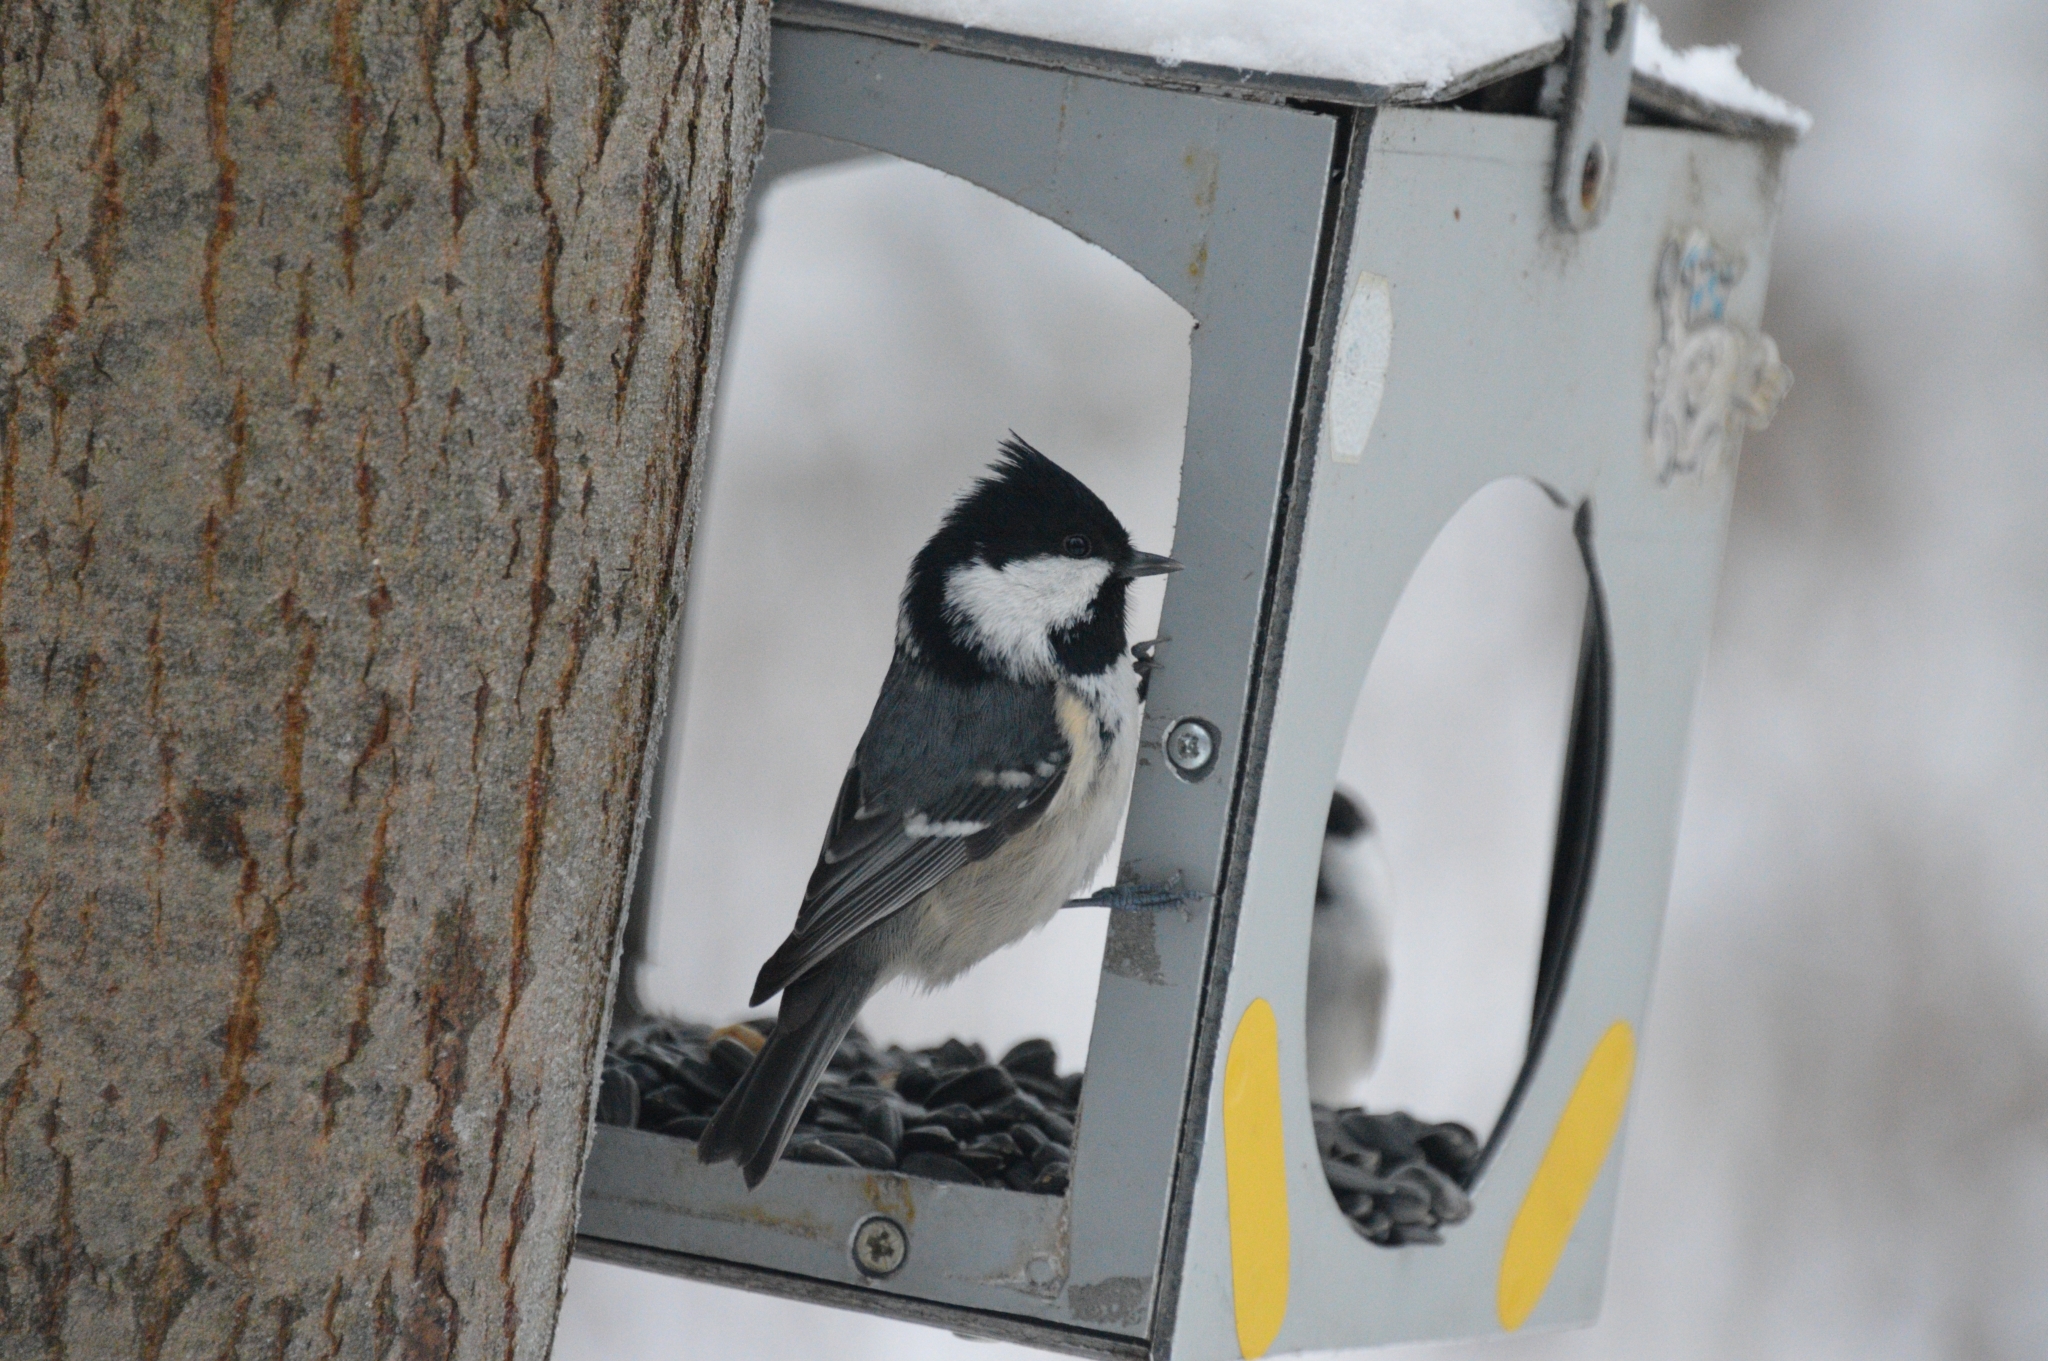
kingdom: Animalia
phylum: Chordata
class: Aves
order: Passeriformes
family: Paridae
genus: Periparus
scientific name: Periparus ater
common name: Coal tit
